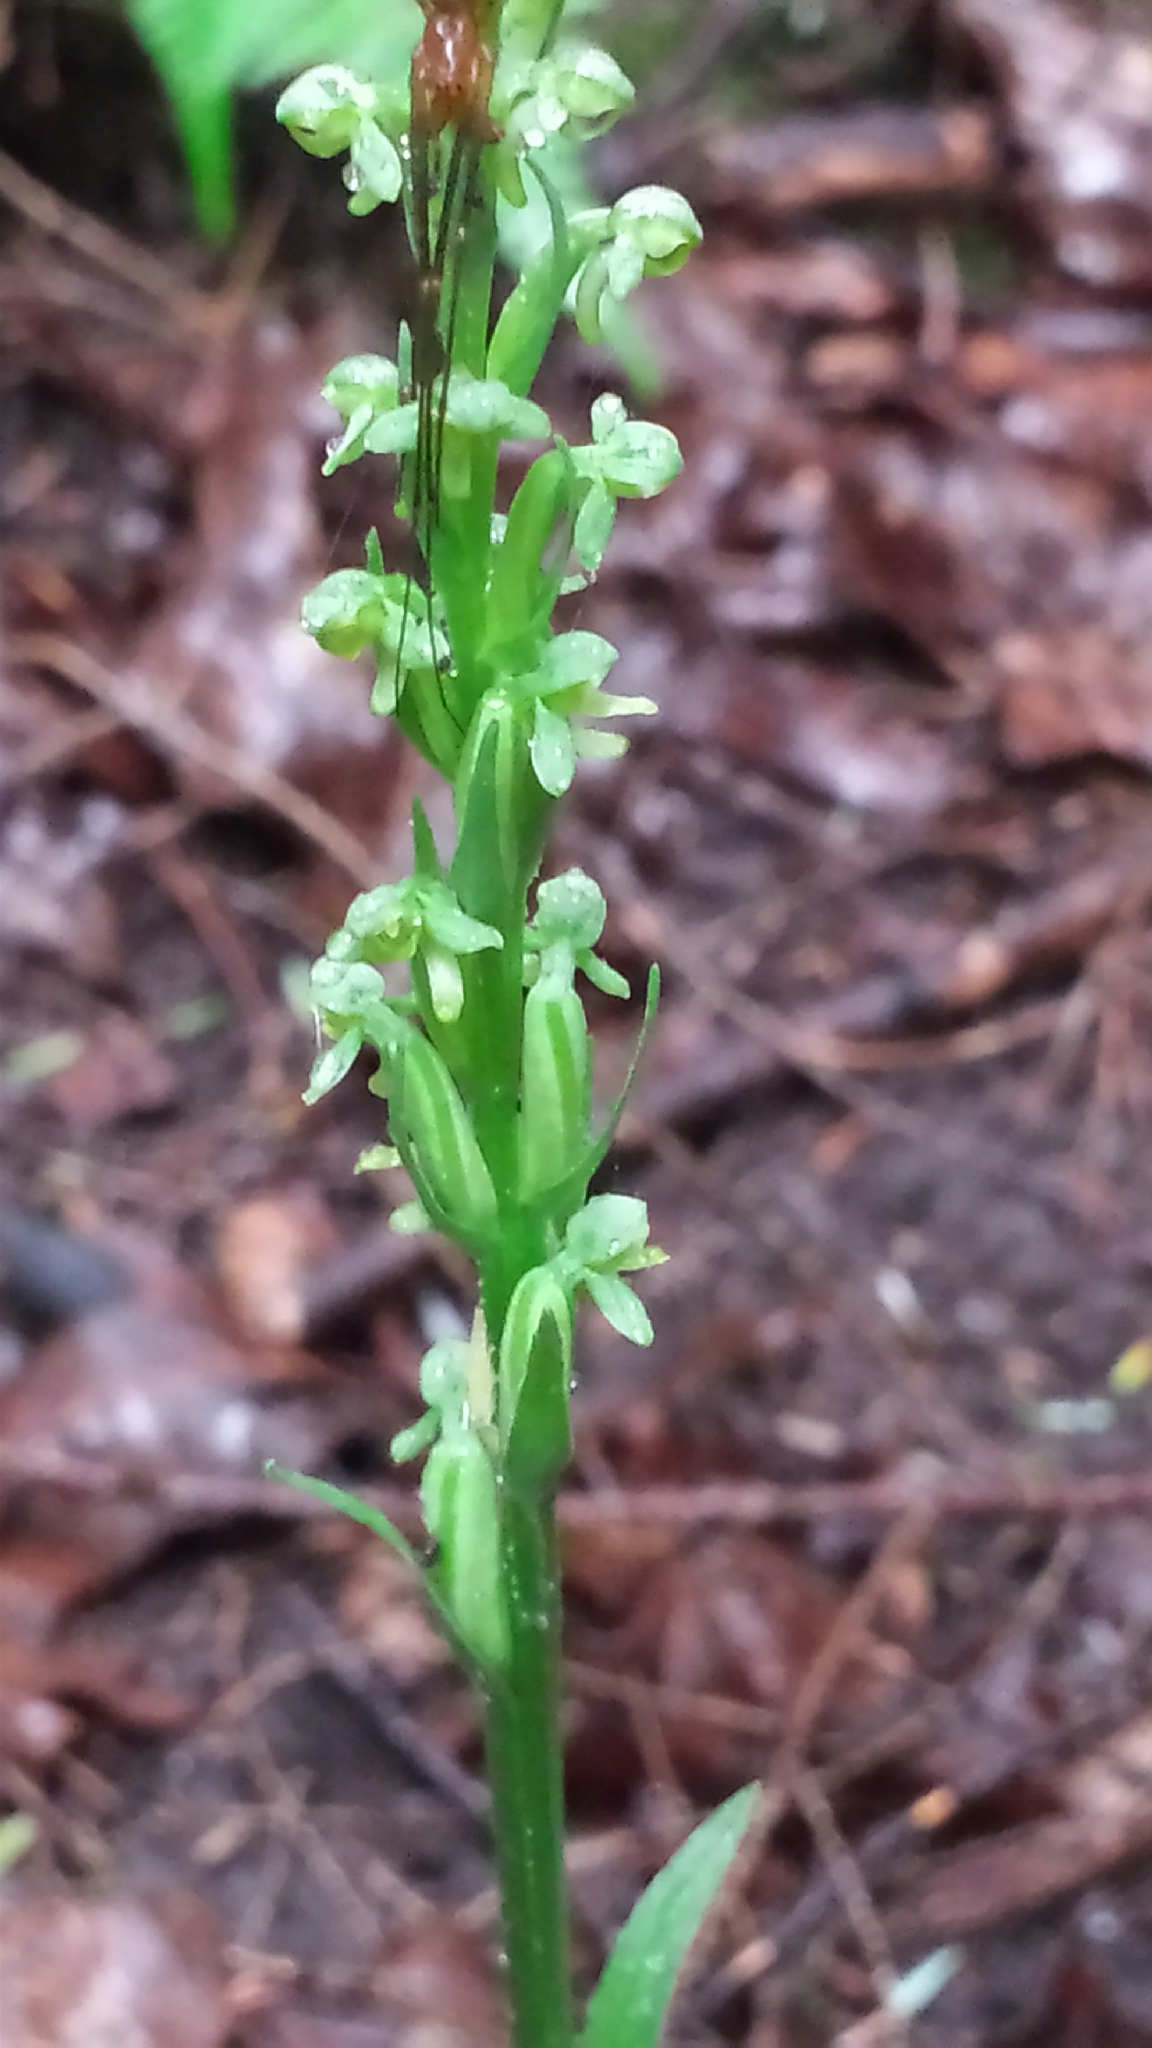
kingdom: Plantae
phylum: Tracheophyta
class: Liliopsida
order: Asparagales
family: Orchidaceae
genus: Platanthera
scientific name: Platanthera aquilonis
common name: Northern green orchid
